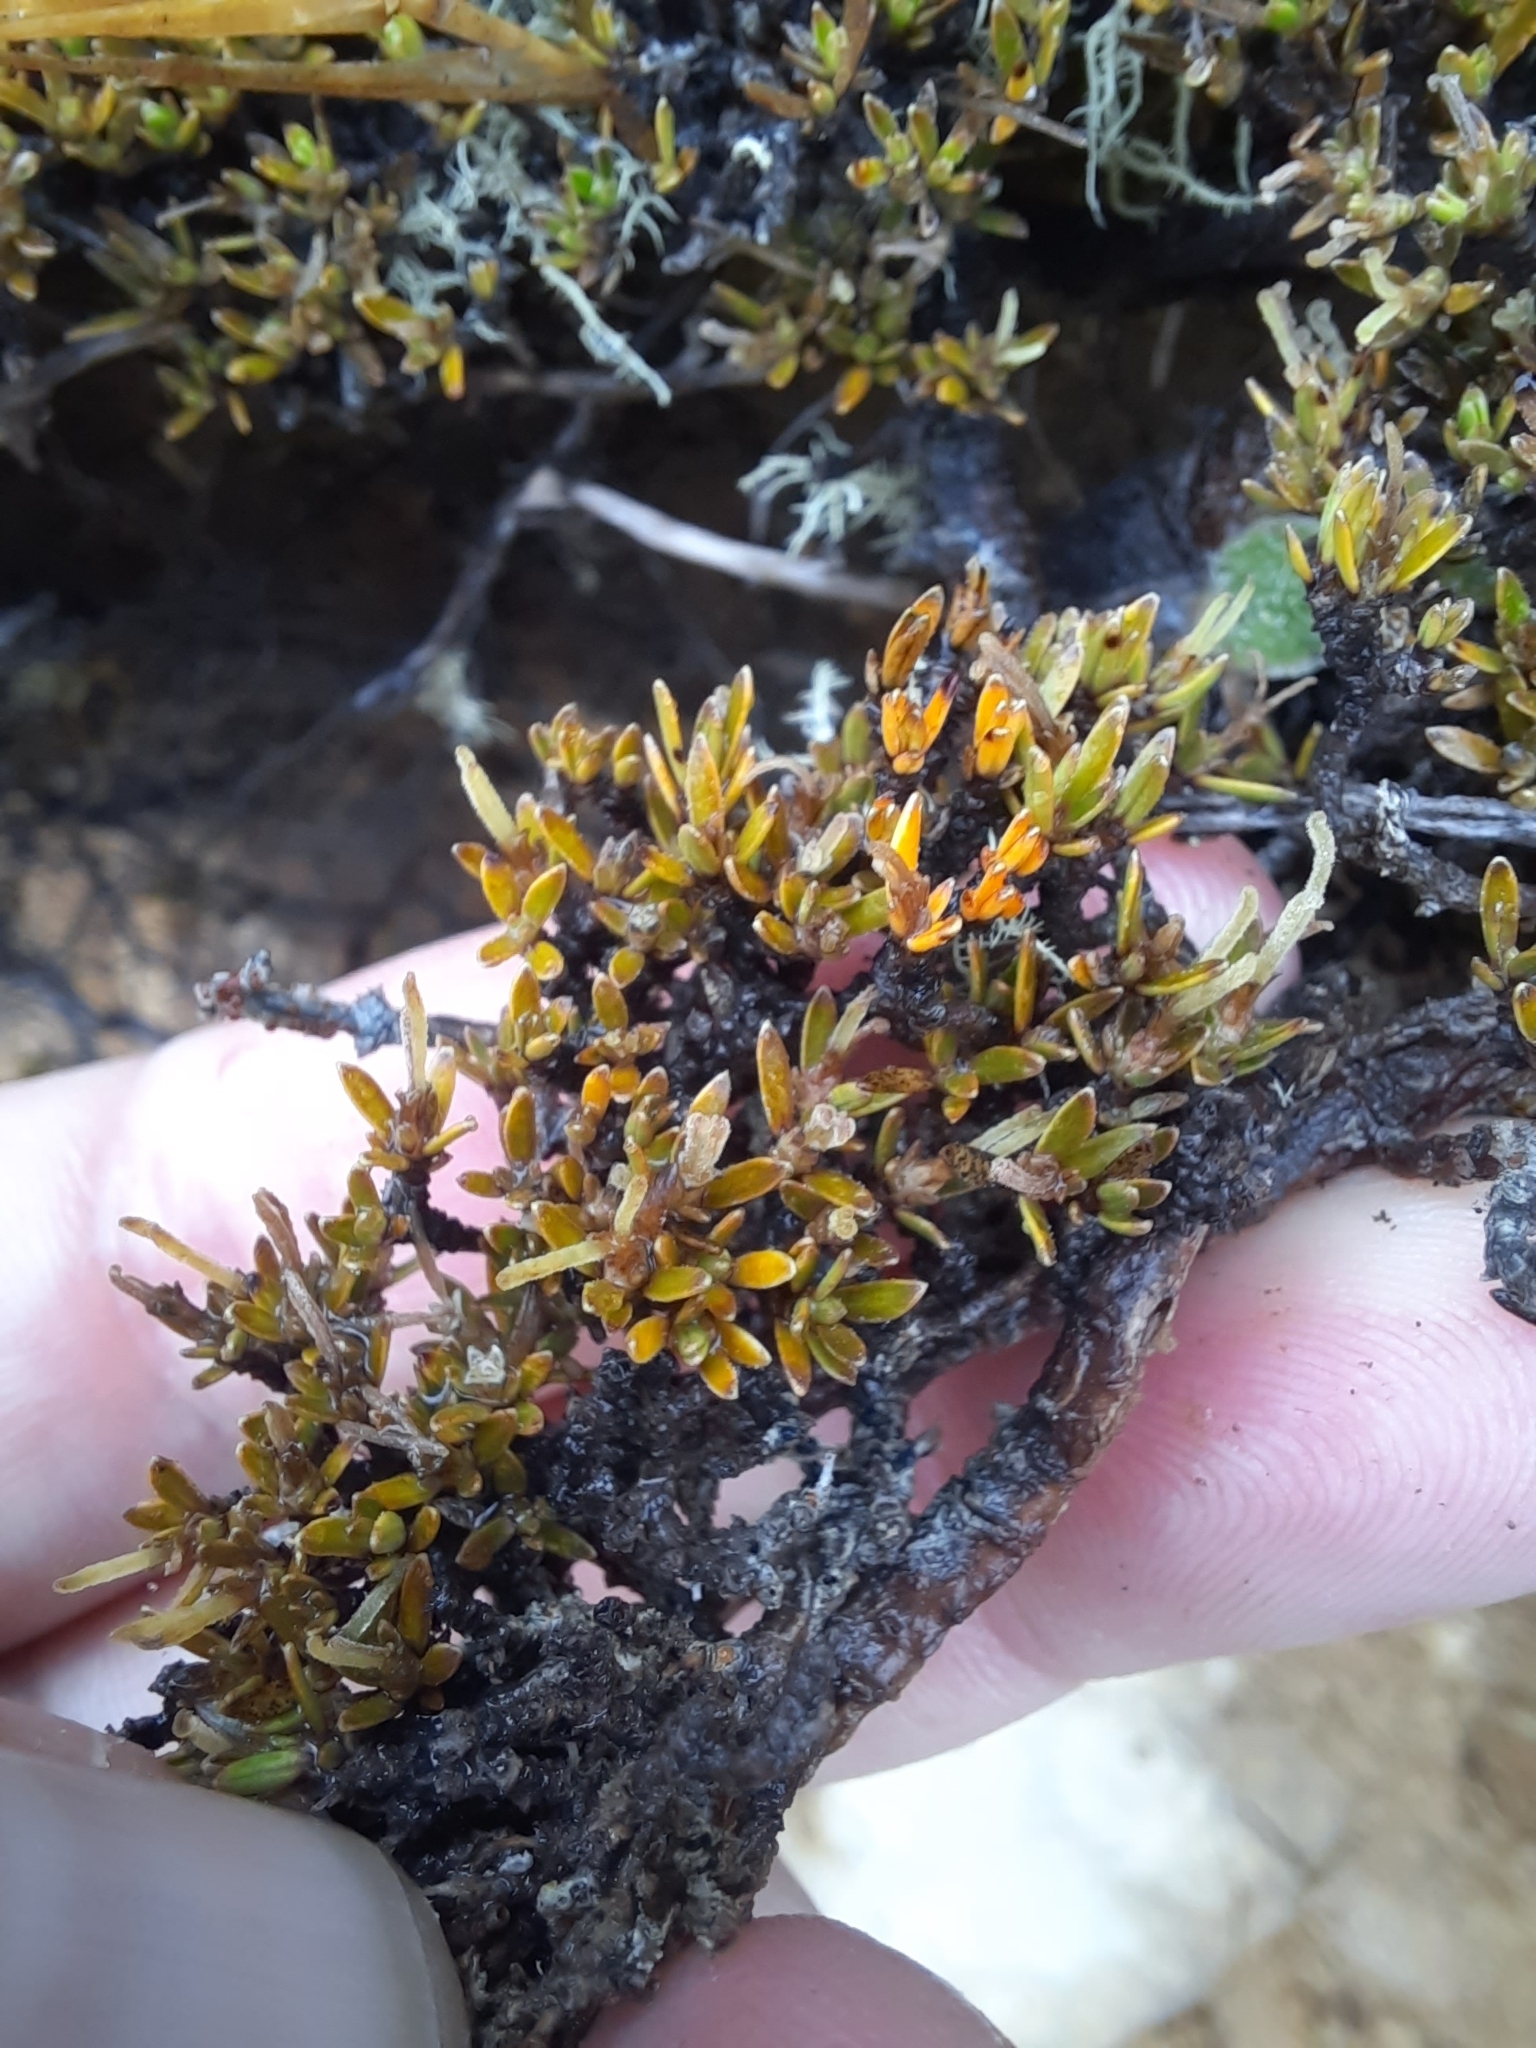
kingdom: Plantae
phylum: Tracheophyta
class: Magnoliopsida
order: Gentianales
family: Rubiaceae
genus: Coprosma
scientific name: Coprosma petriei
